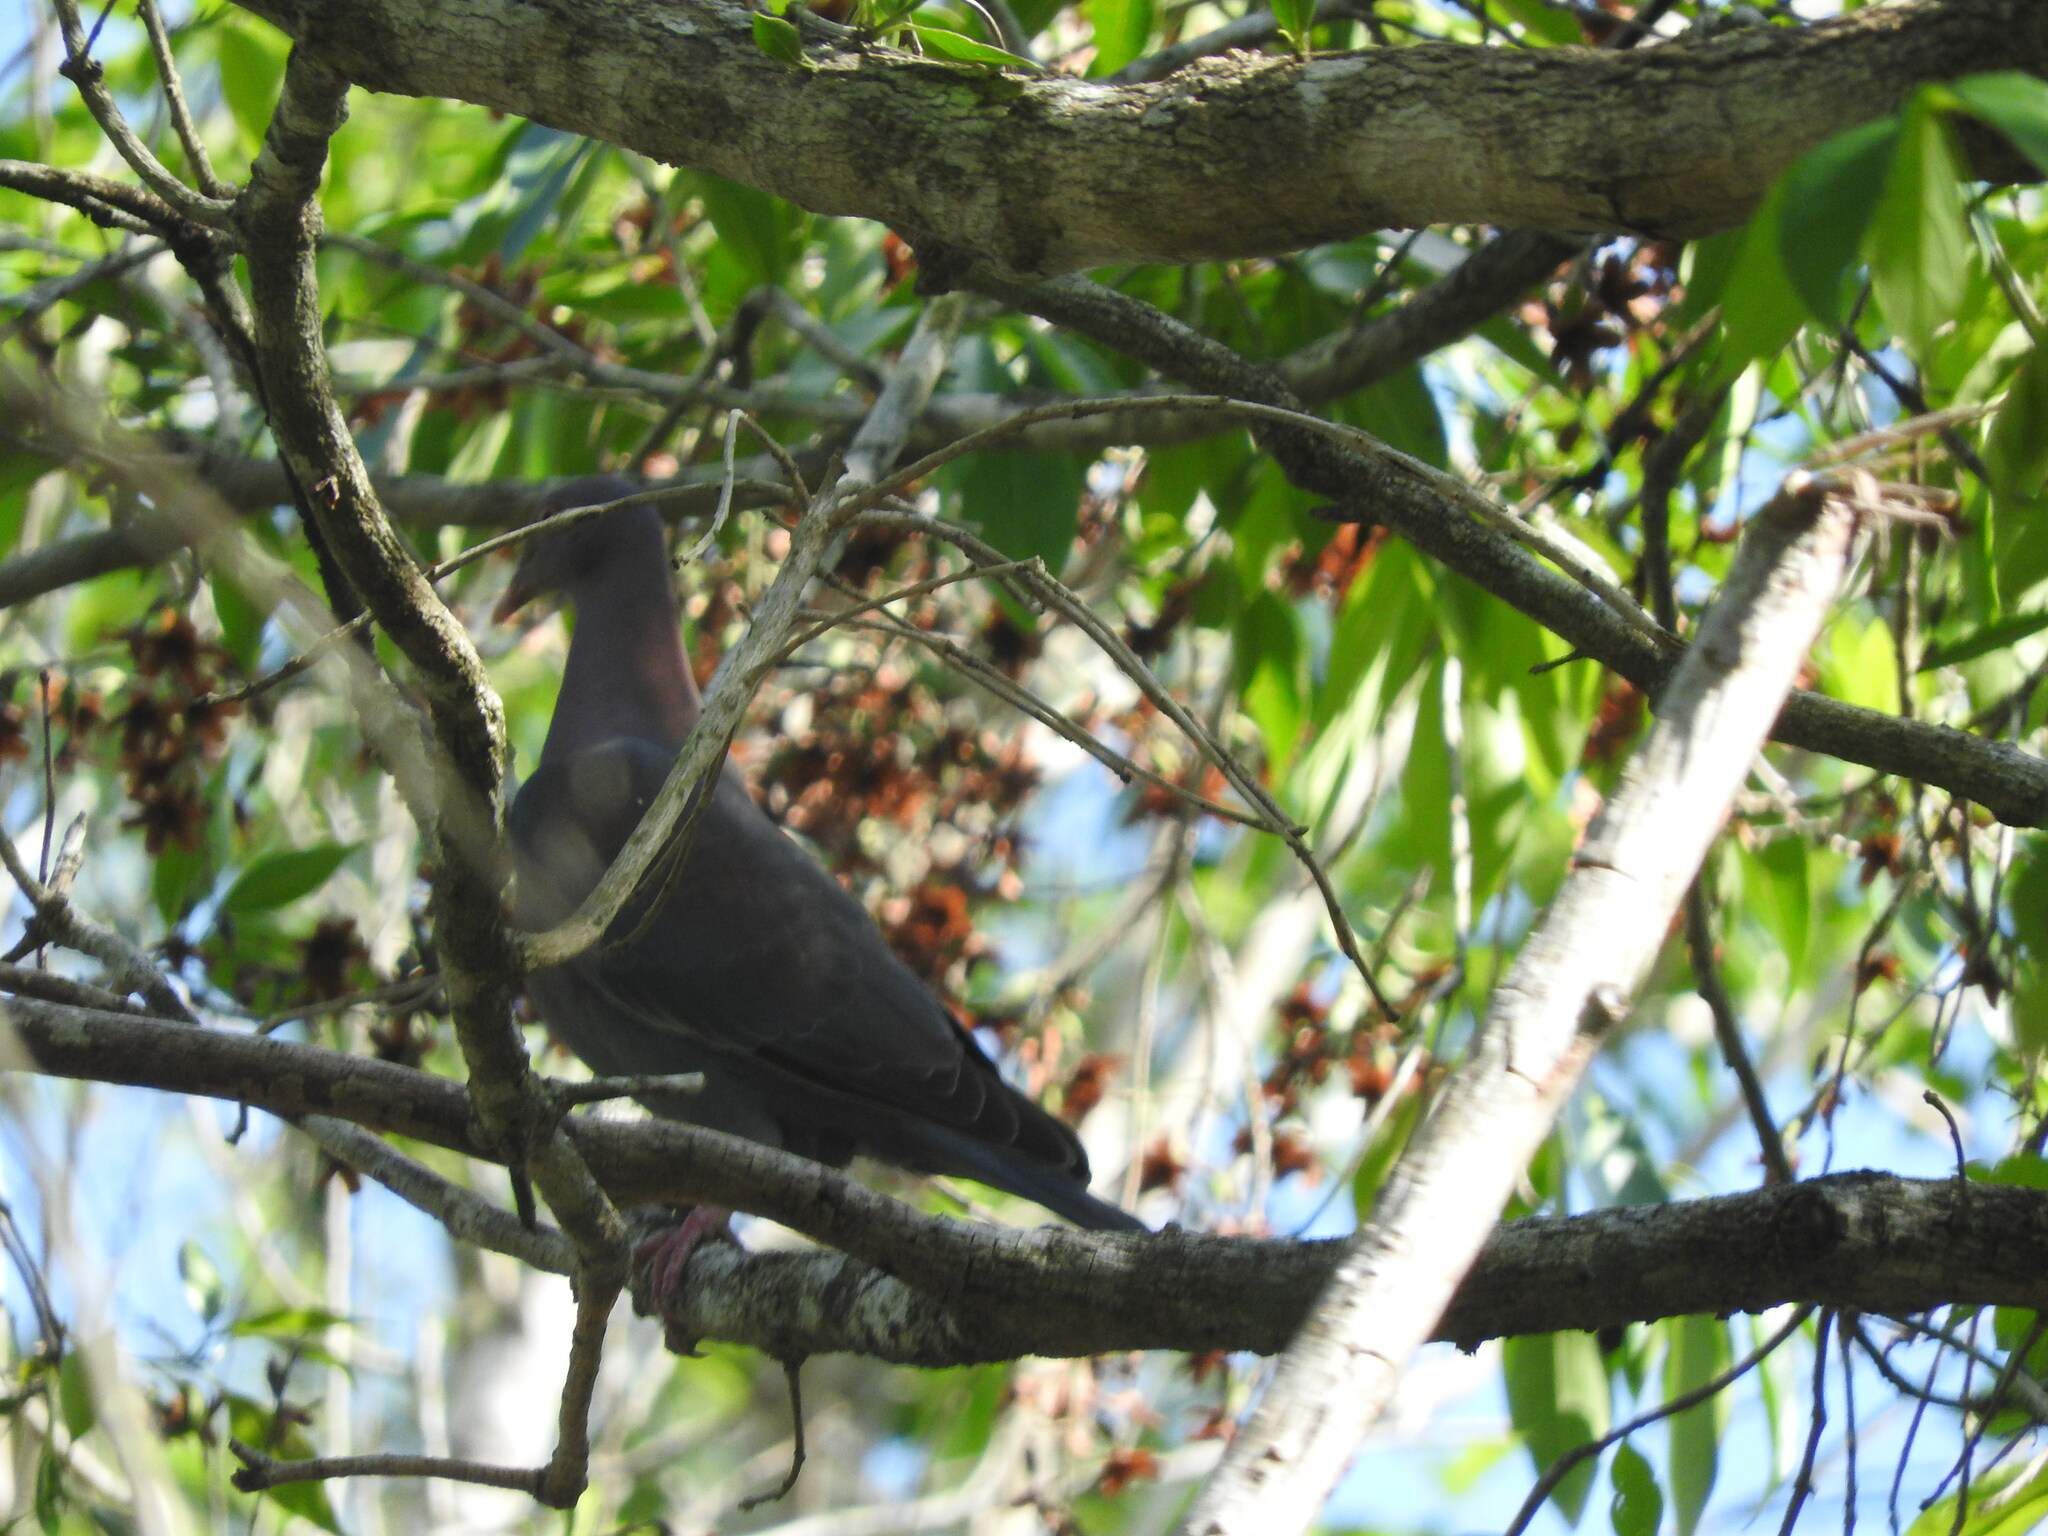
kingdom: Animalia
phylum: Chordata
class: Aves
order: Columbiformes
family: Columbidae
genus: Patagioenas
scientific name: Patagioenas flavirostris
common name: Red-billed pigeon
